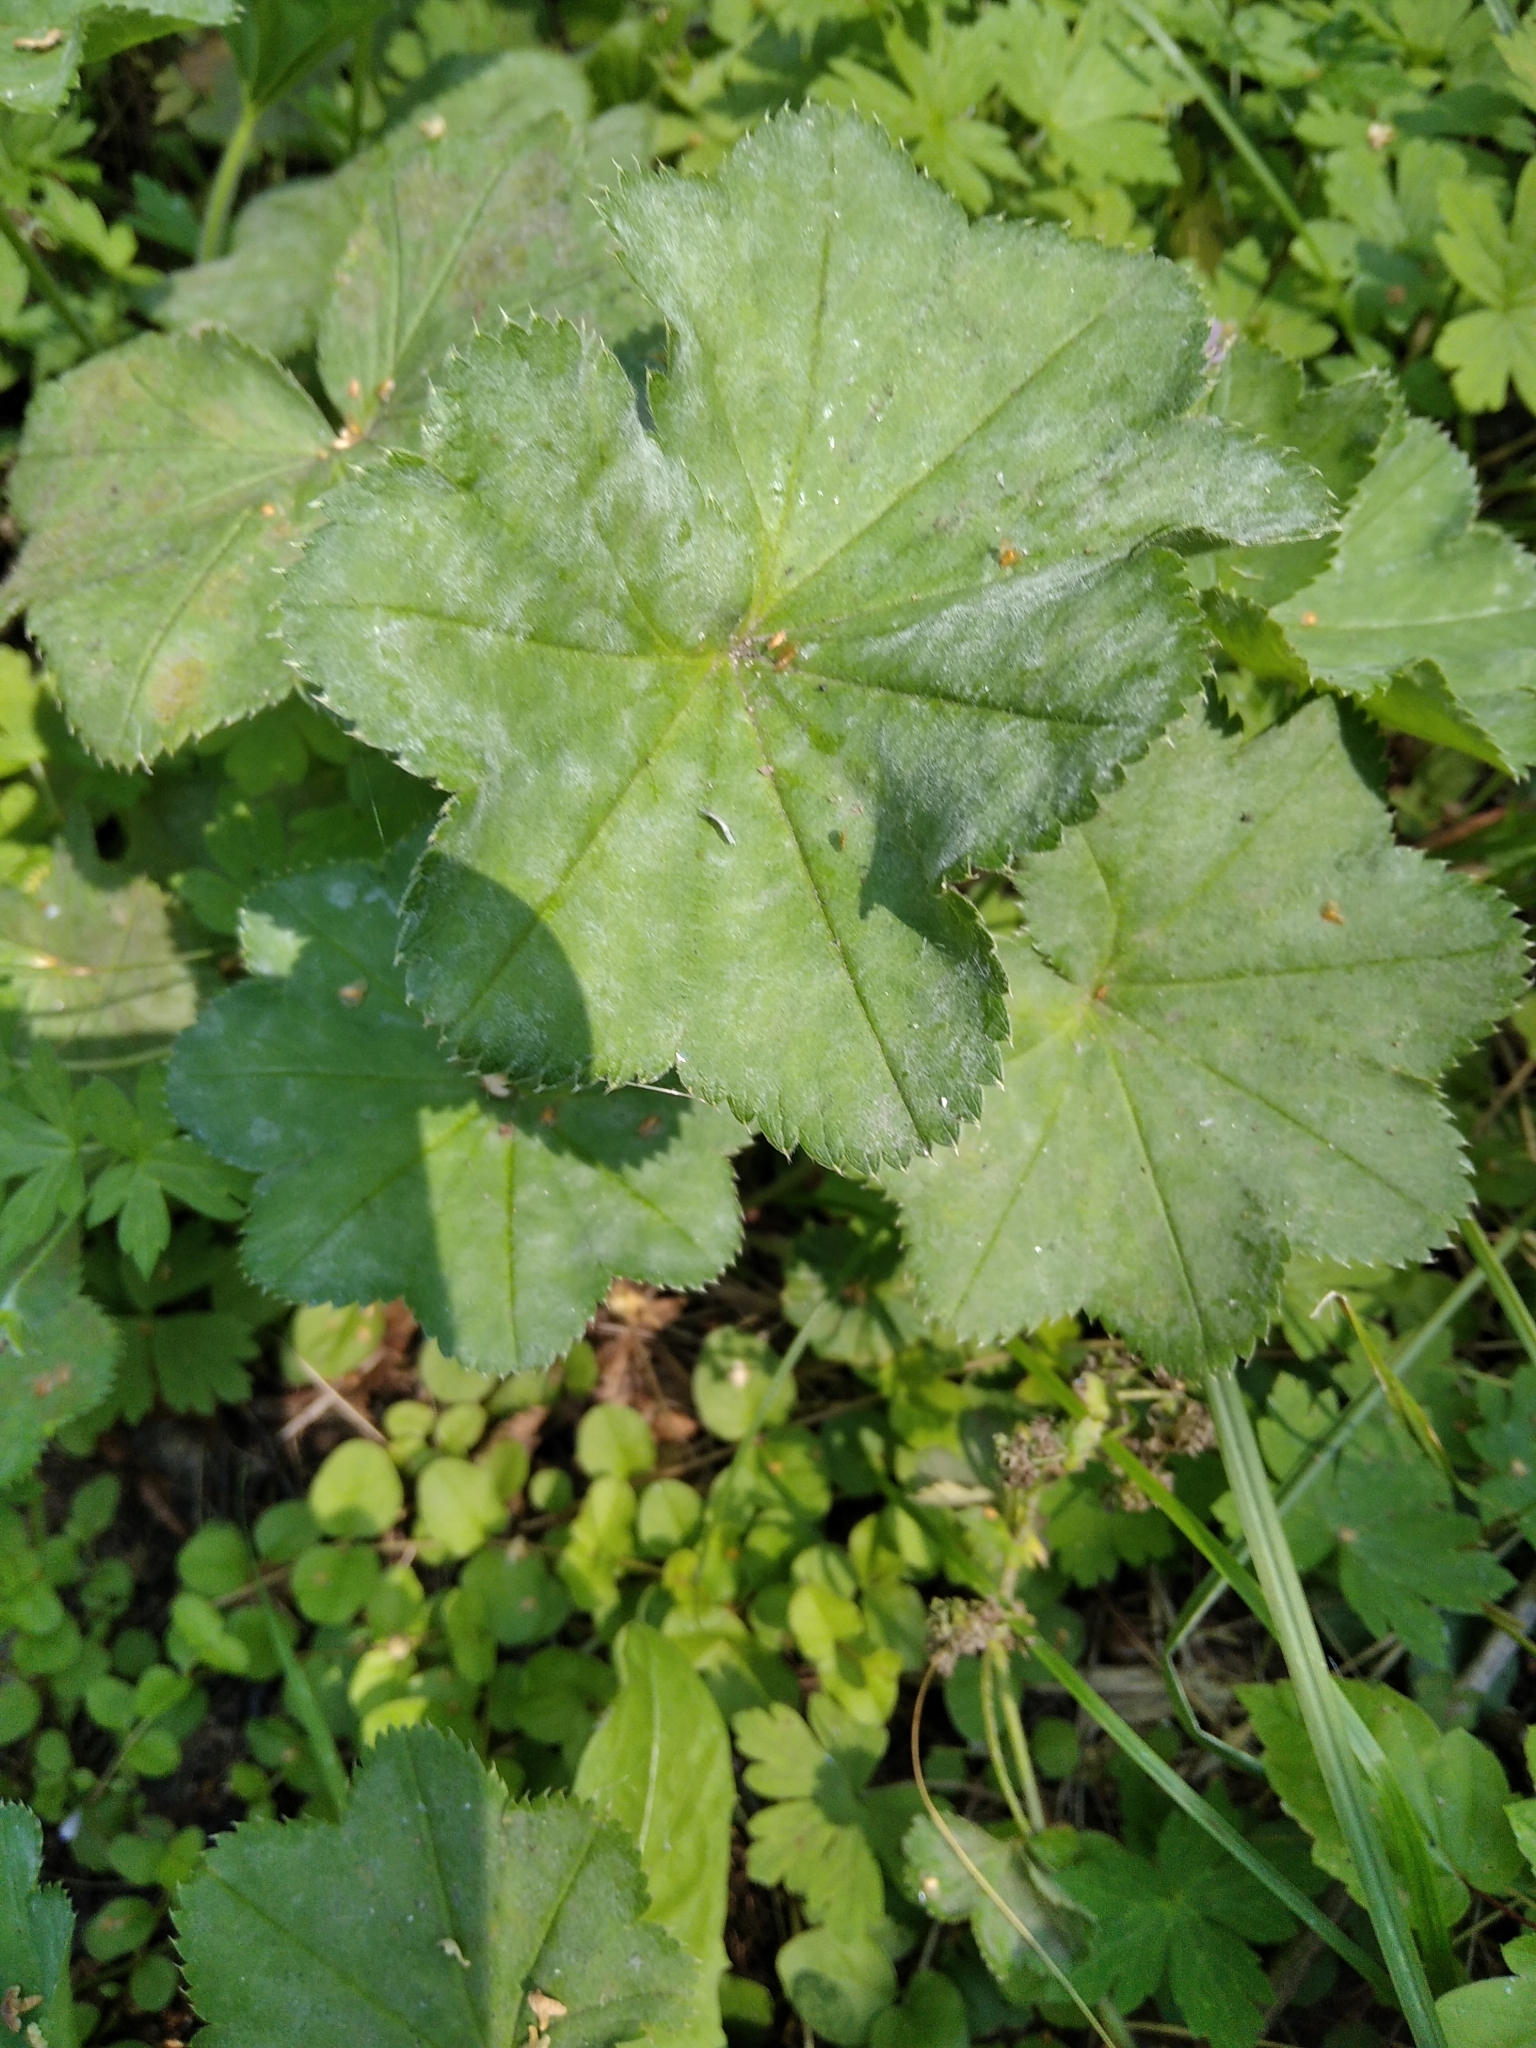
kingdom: Plantae
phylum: Tracheophyta
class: Magnoliopsida
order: Rosales
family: Rosaceae
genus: Alchemilla
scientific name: Alchemilla cymatophylla
